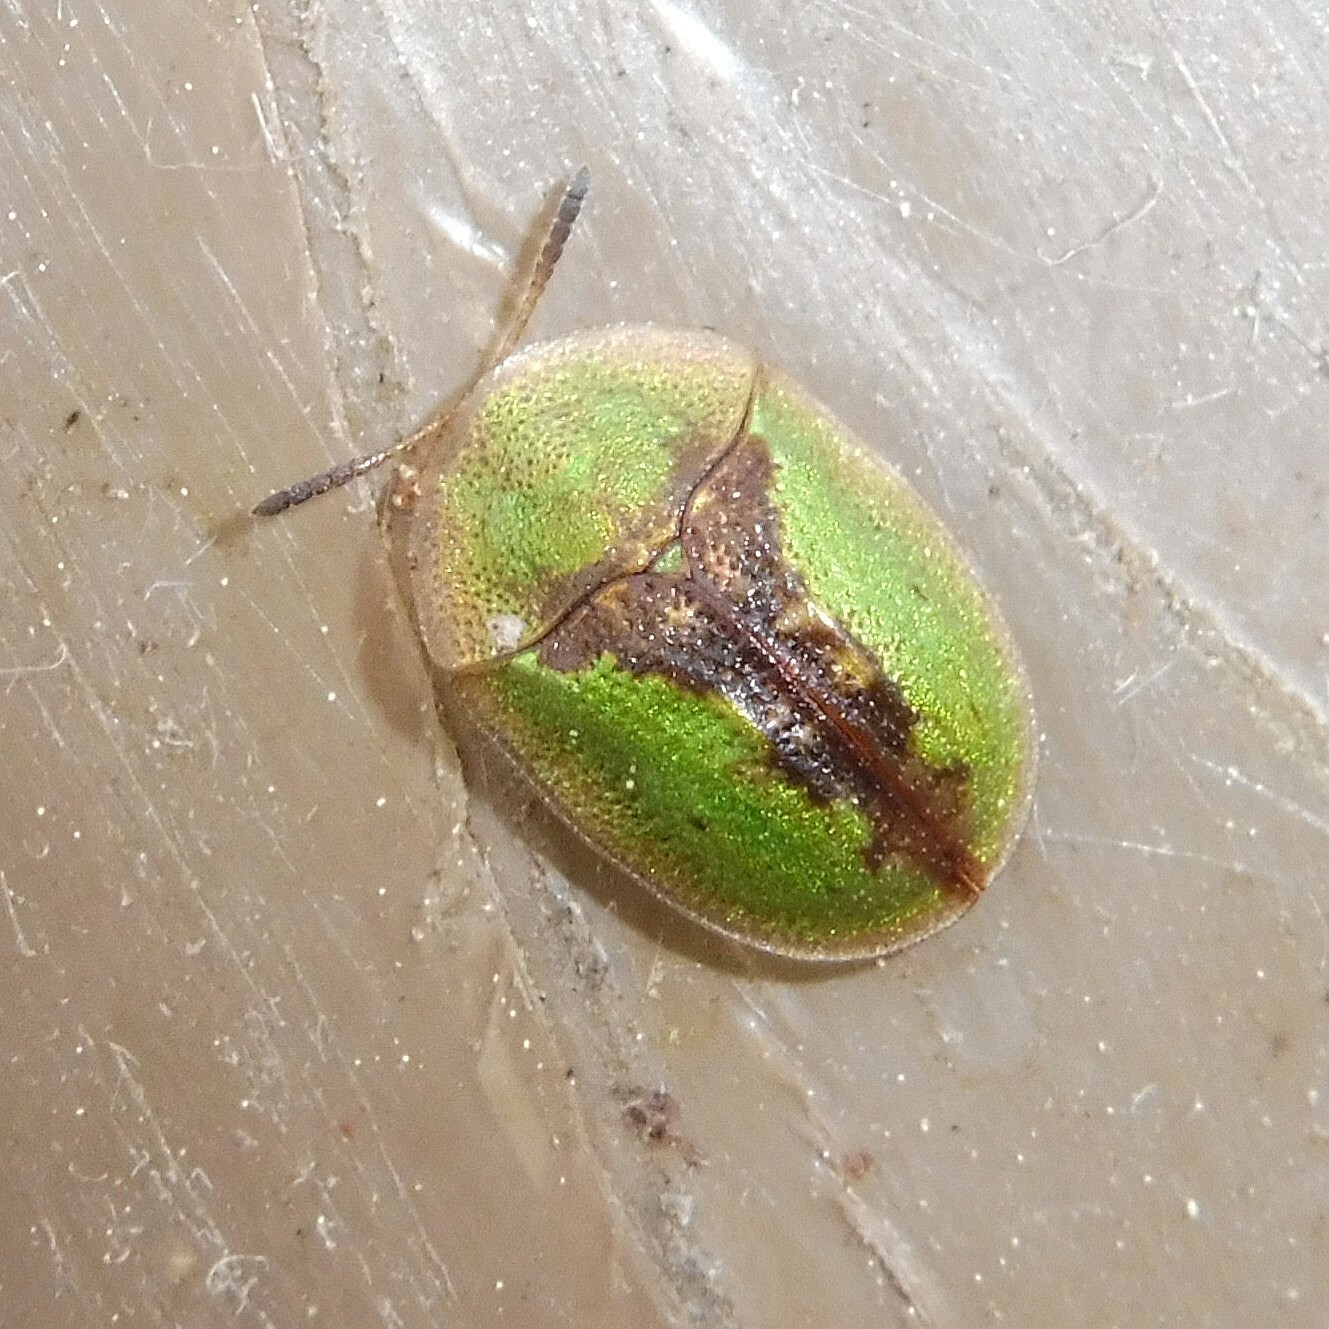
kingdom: Animalia
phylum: Arthropoda
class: Insecta
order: Coleoptera
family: Chrysomelidae
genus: Cassida
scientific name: Cassida vibex
